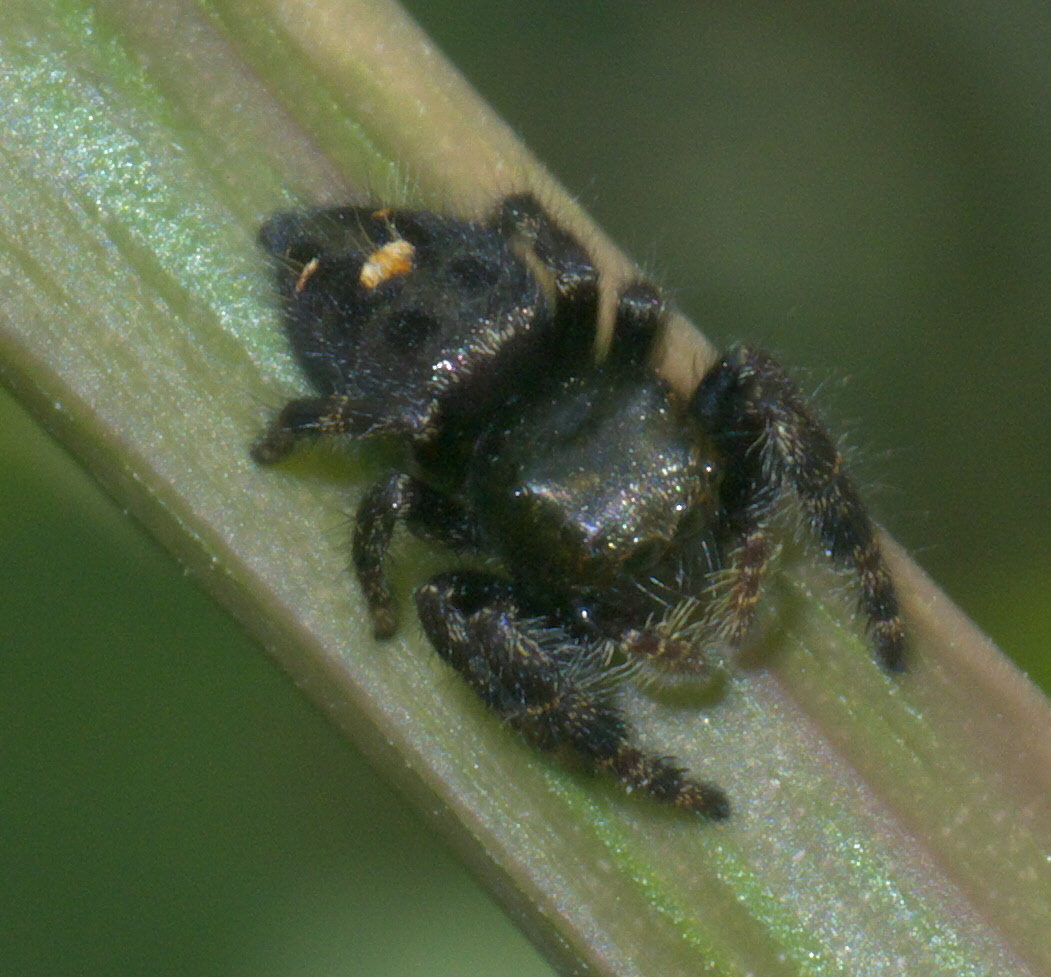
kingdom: Animalia
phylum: Arthropoda
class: Arachnida
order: Araneae
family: Salticidae
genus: Phidippus
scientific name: Phidippus audax
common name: Bold jumper
